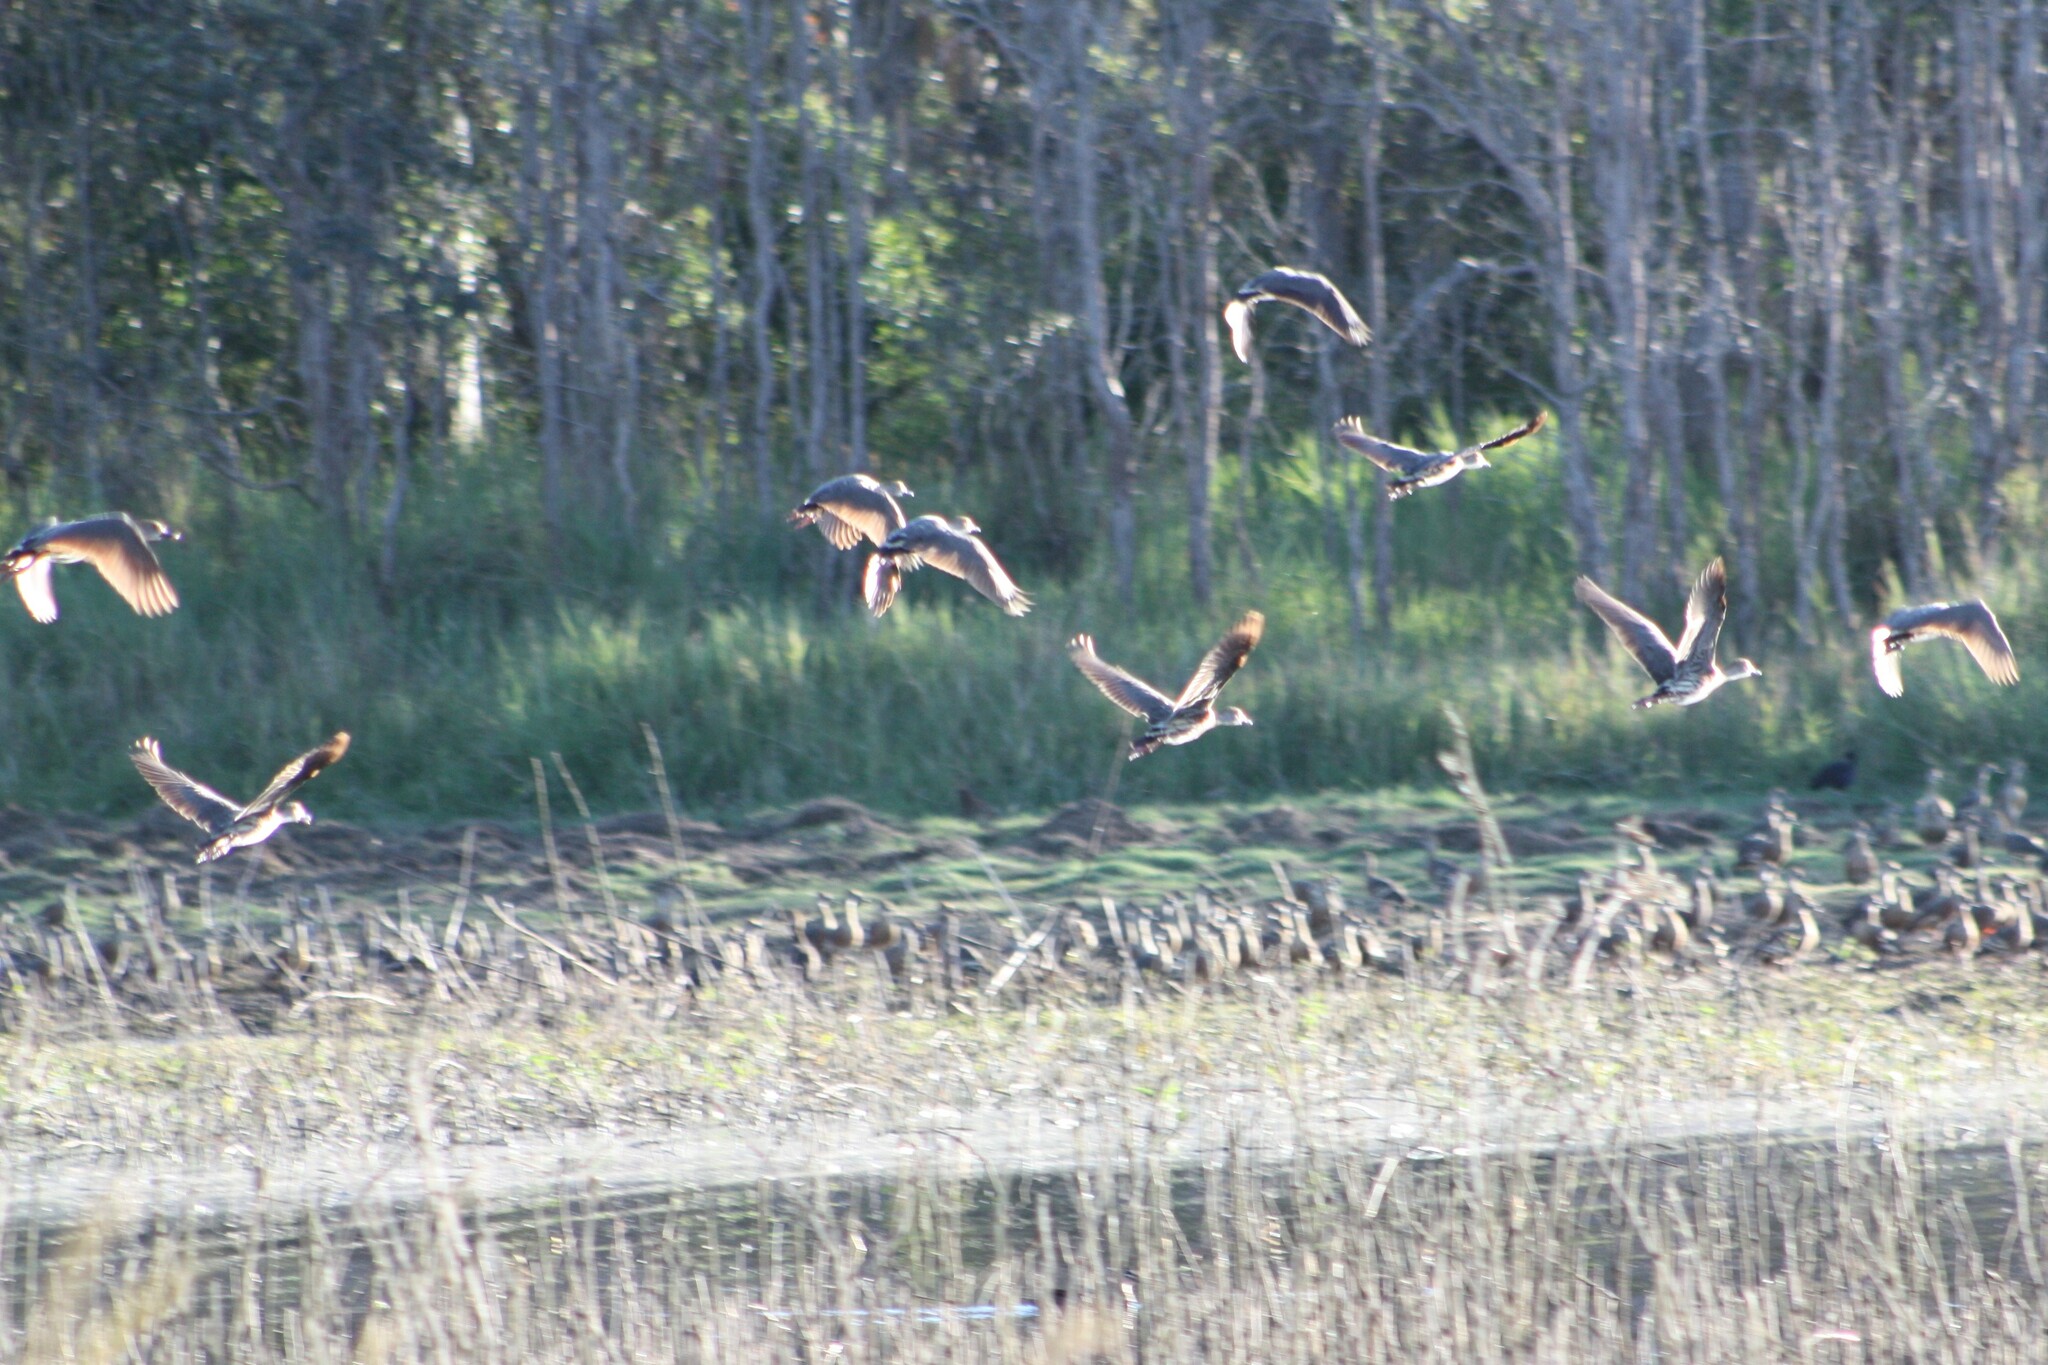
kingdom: Animalia
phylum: Chordata
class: Aves
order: Anseriformes
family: Anatidae
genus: Dendrocygna
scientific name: Dendrocygna eytoni
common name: Plumed whistling-duck
